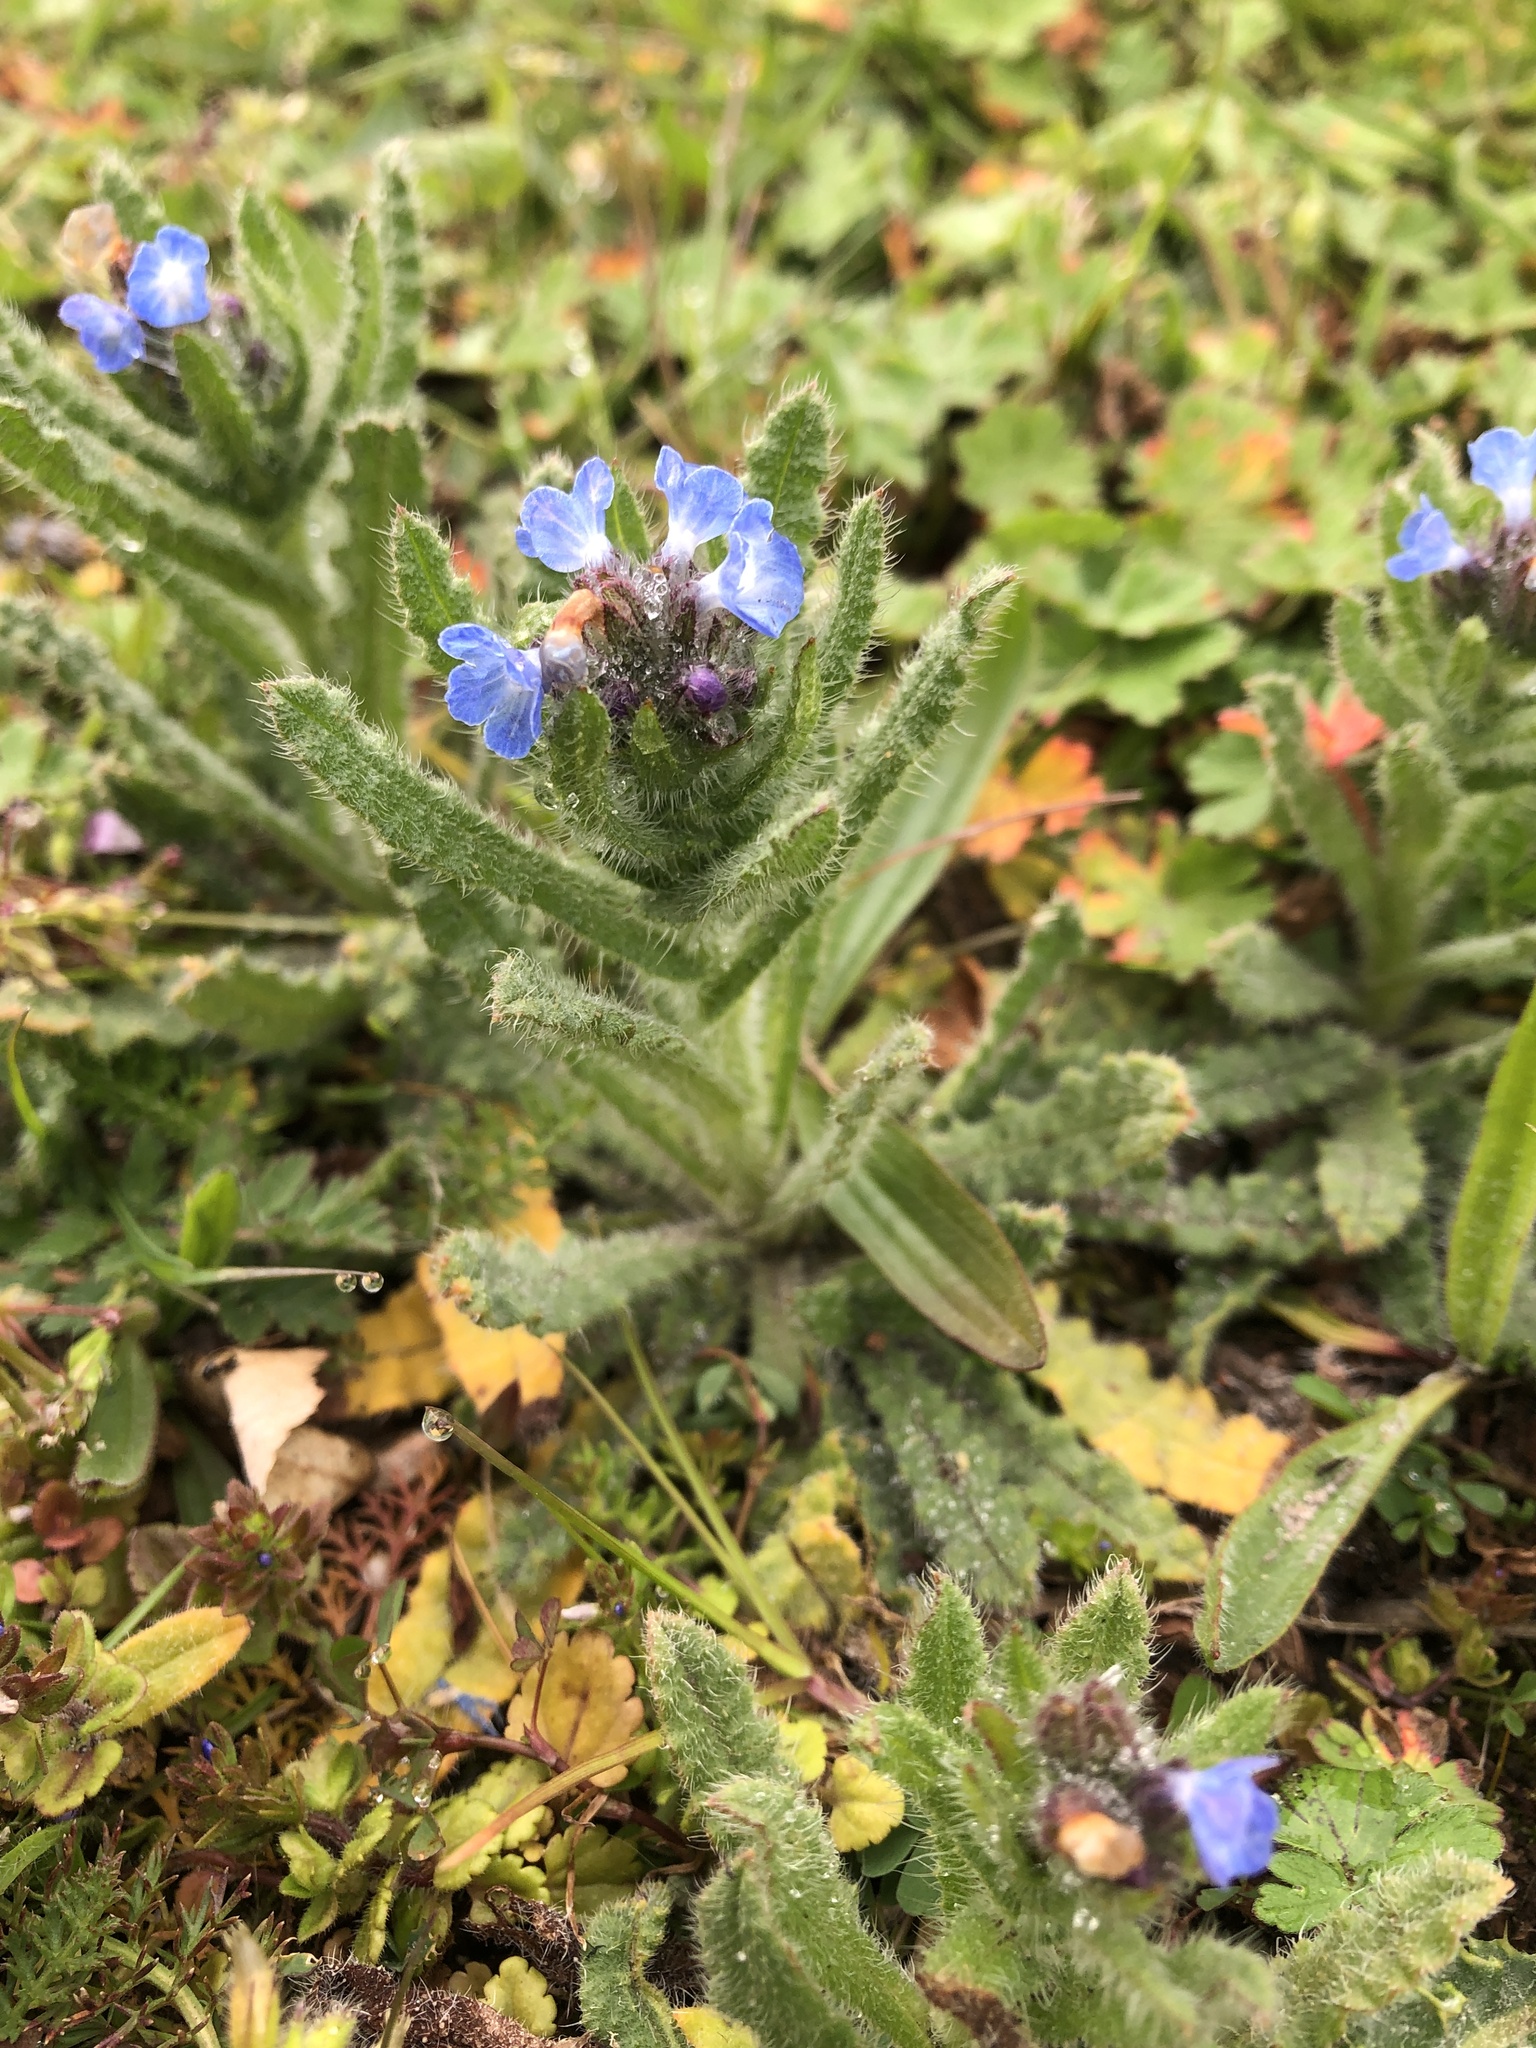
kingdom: Plantae
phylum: Tracheophyta
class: Magnoliopsida
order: Boraginales
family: Boraginaceae
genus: Lycopsis
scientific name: Lycopsis arvensis
